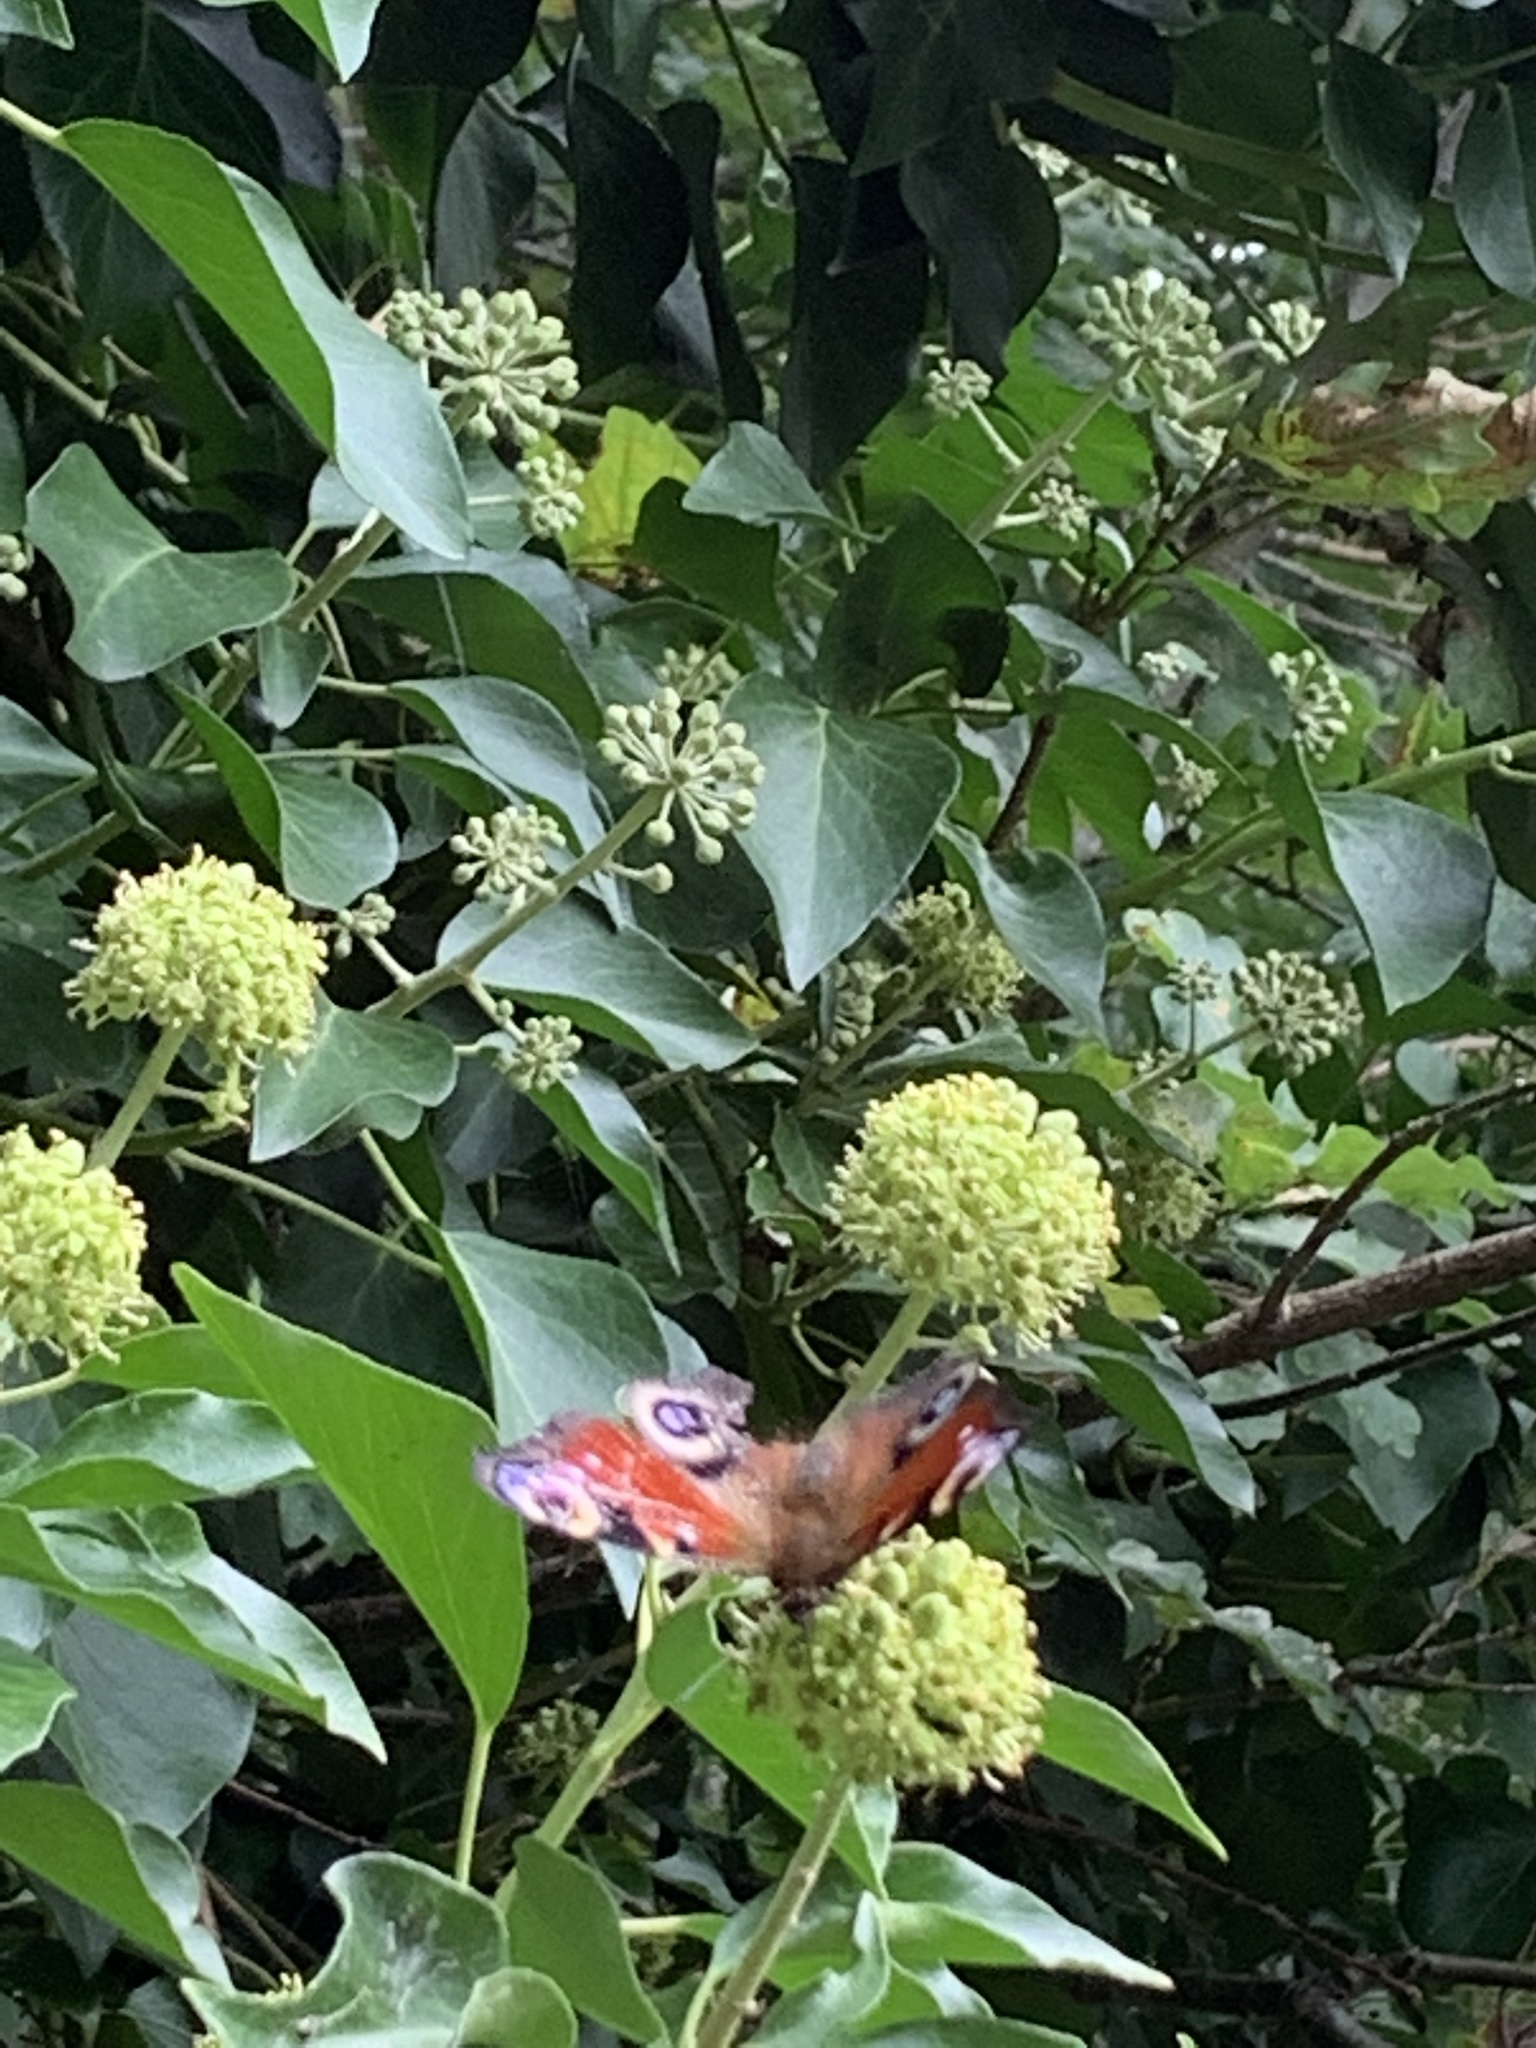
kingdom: Animalia
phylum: Arthropoda
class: Insecta
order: Lepidoptera
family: Nymphalidae
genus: Aglais
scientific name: Aglais io
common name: Peacock
